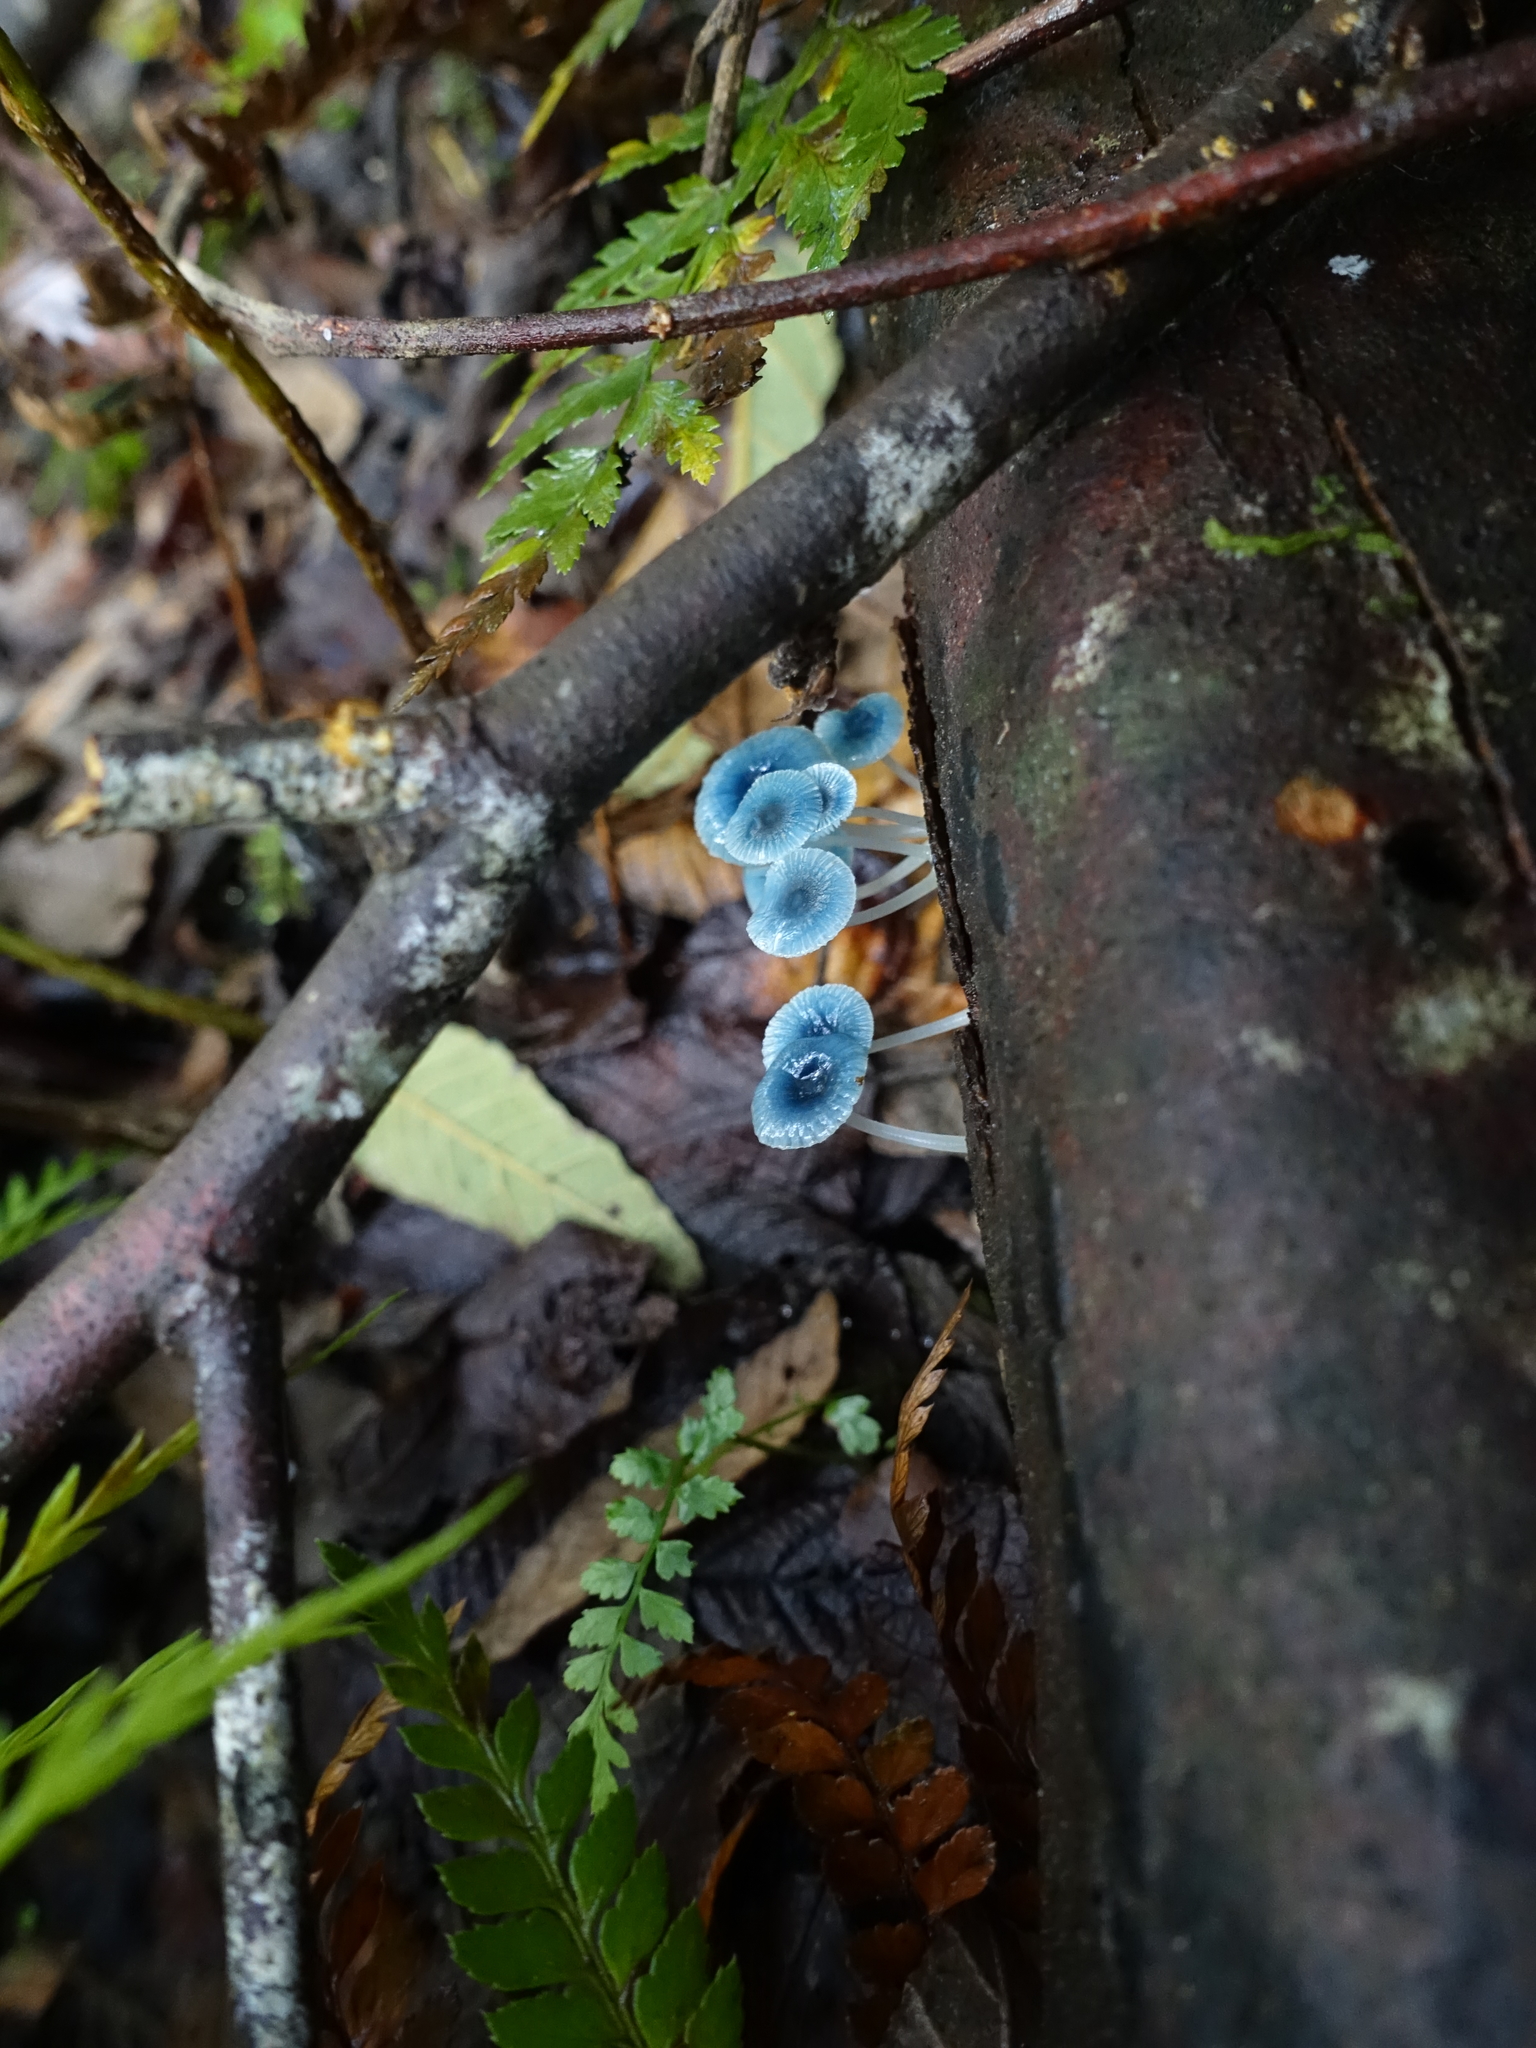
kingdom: Fungi
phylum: Basidiomycota
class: Agaricomycetes
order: Agaricales
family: Mycenaceae
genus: Mycena
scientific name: Mycena interrupta
